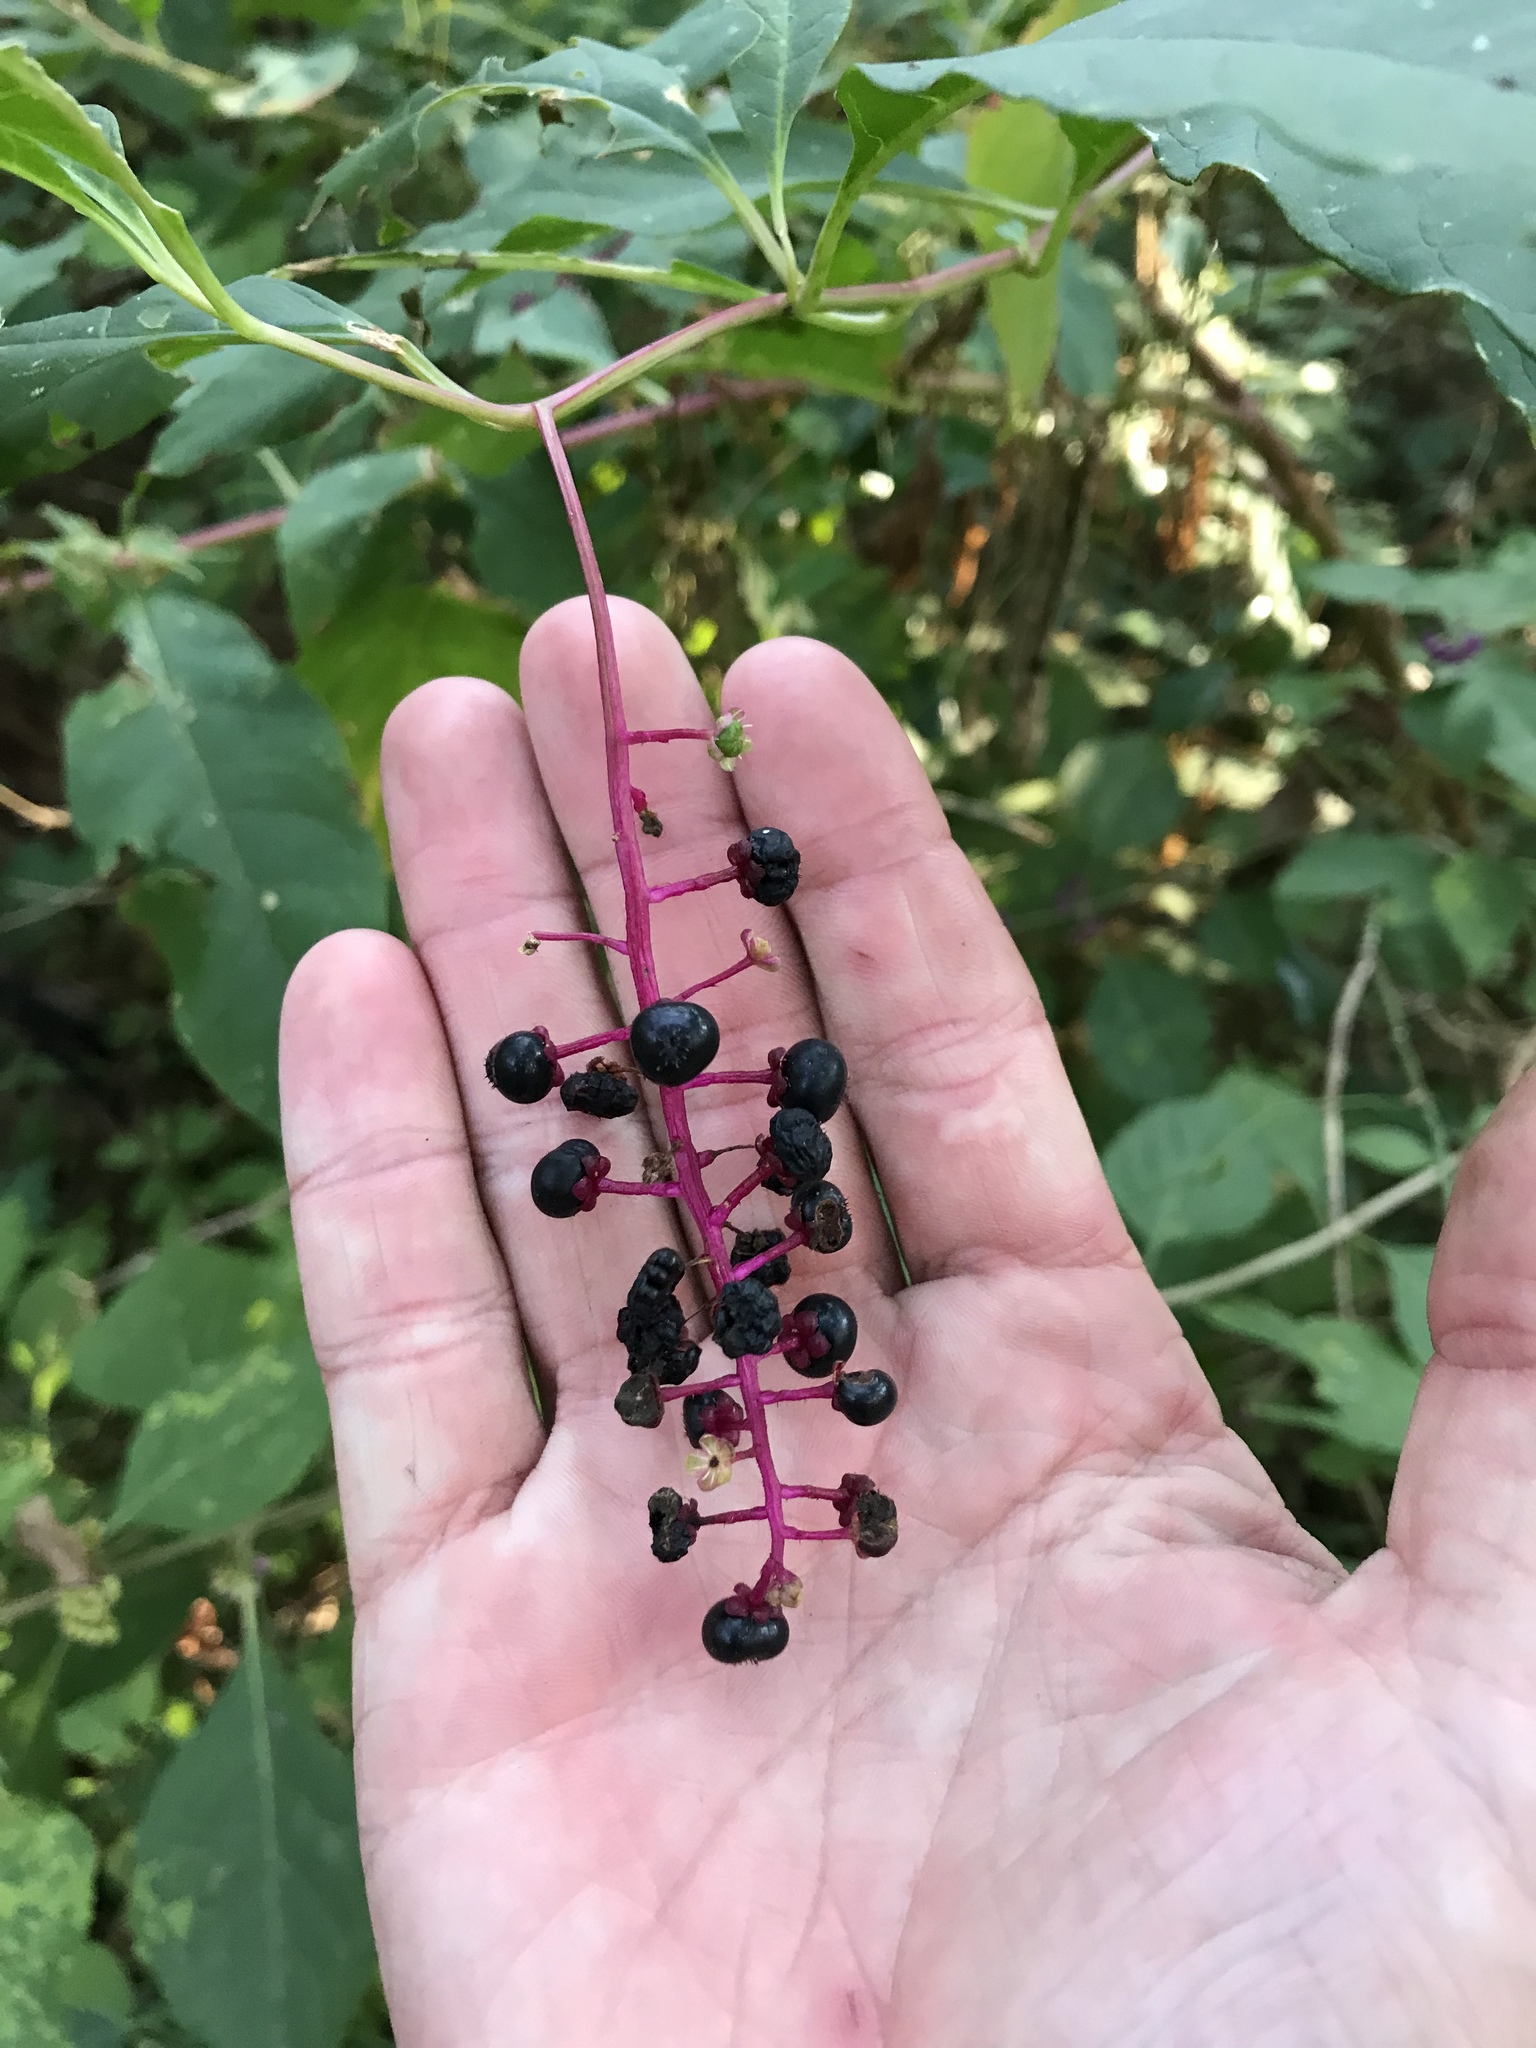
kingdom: Plantae
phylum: Tracheophyta
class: Magnoliopsida
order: Caryophyllales
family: Phytolaccaceae
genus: Phytolacca
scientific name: Phytolacca americana
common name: American pokeweed
